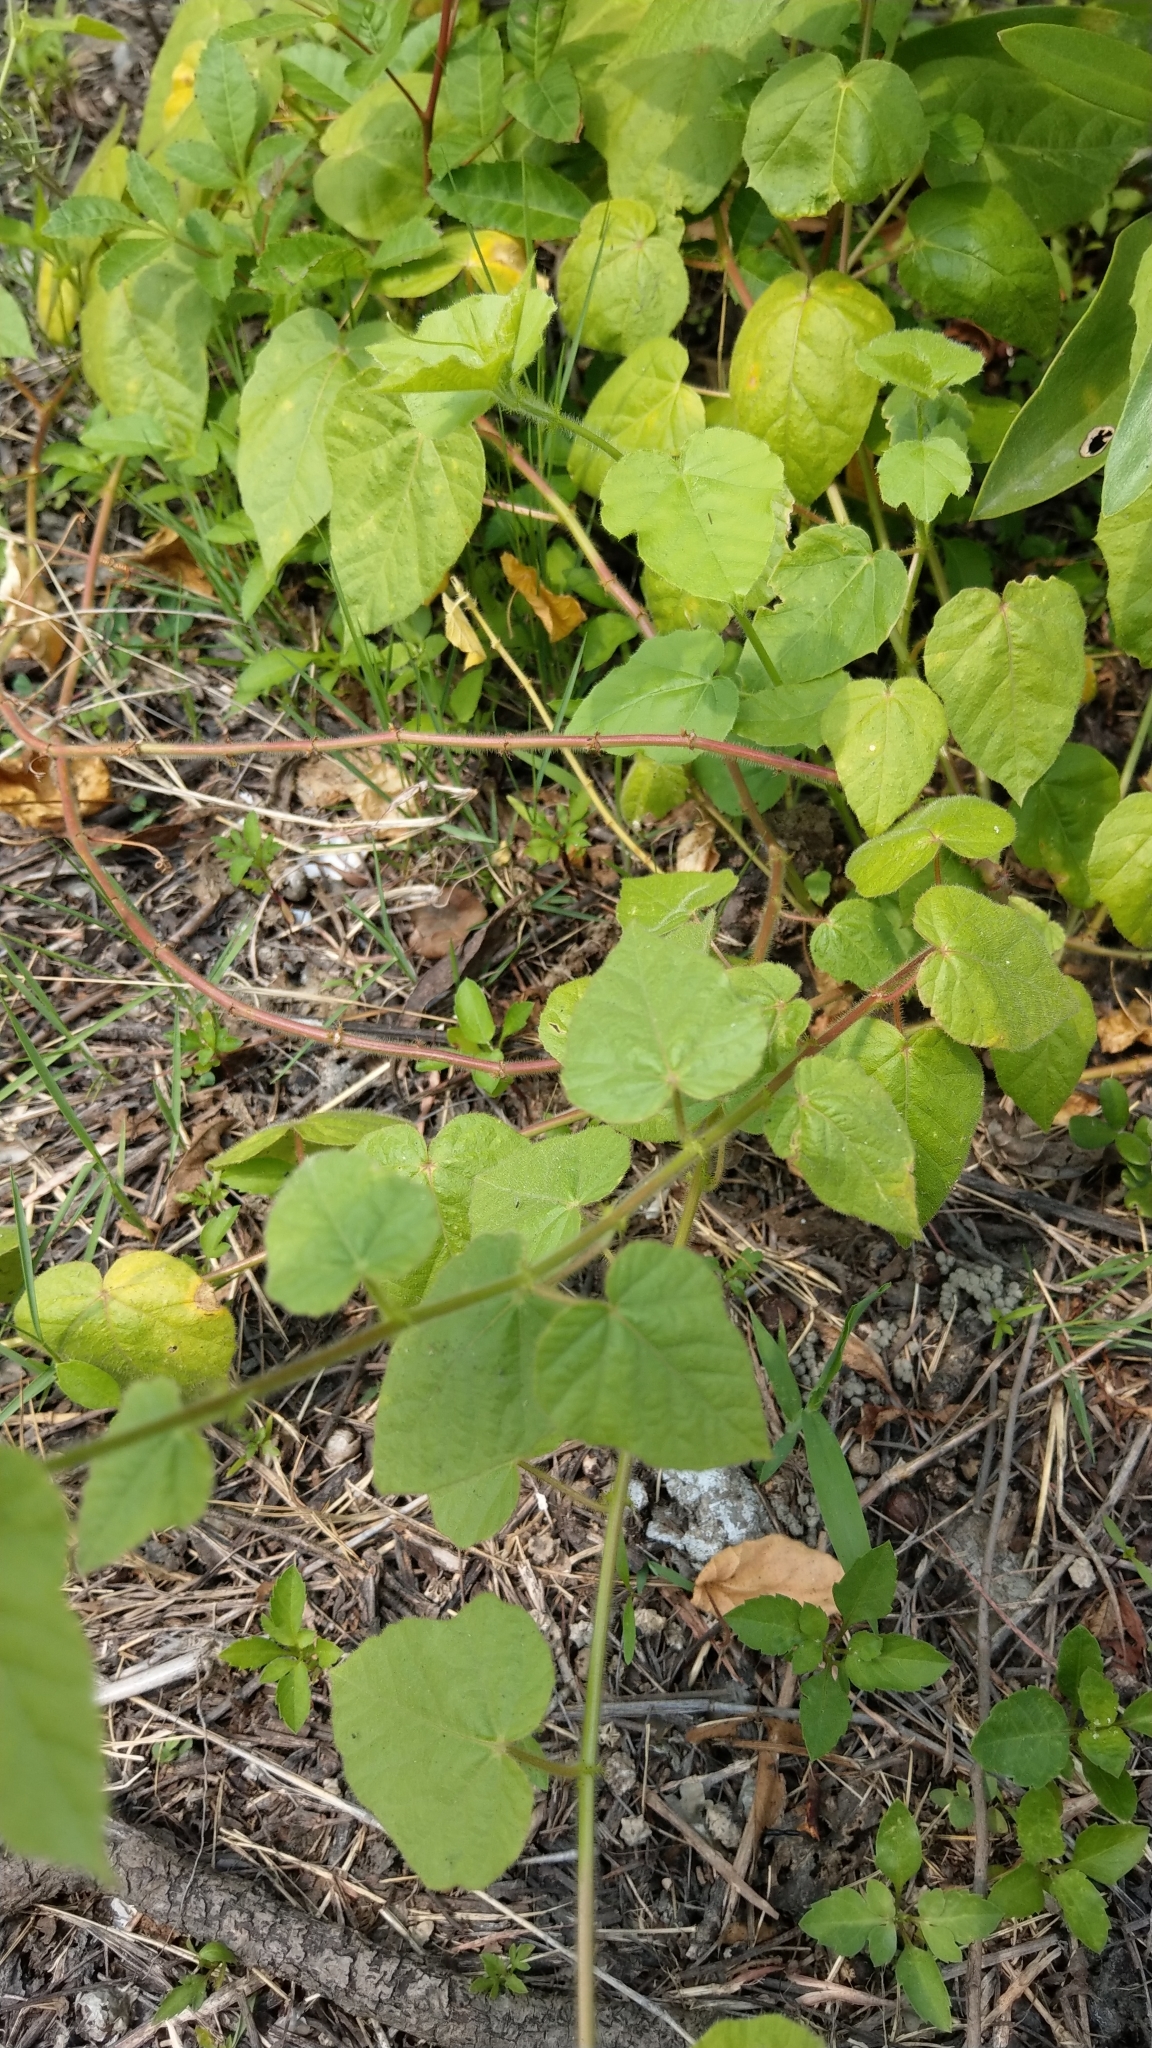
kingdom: Plantae
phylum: Tracheophyta
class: Magnoliopsida
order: Malpighiales
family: Passifloraceae
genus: Passiflora
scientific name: Passiflora vesicaria
